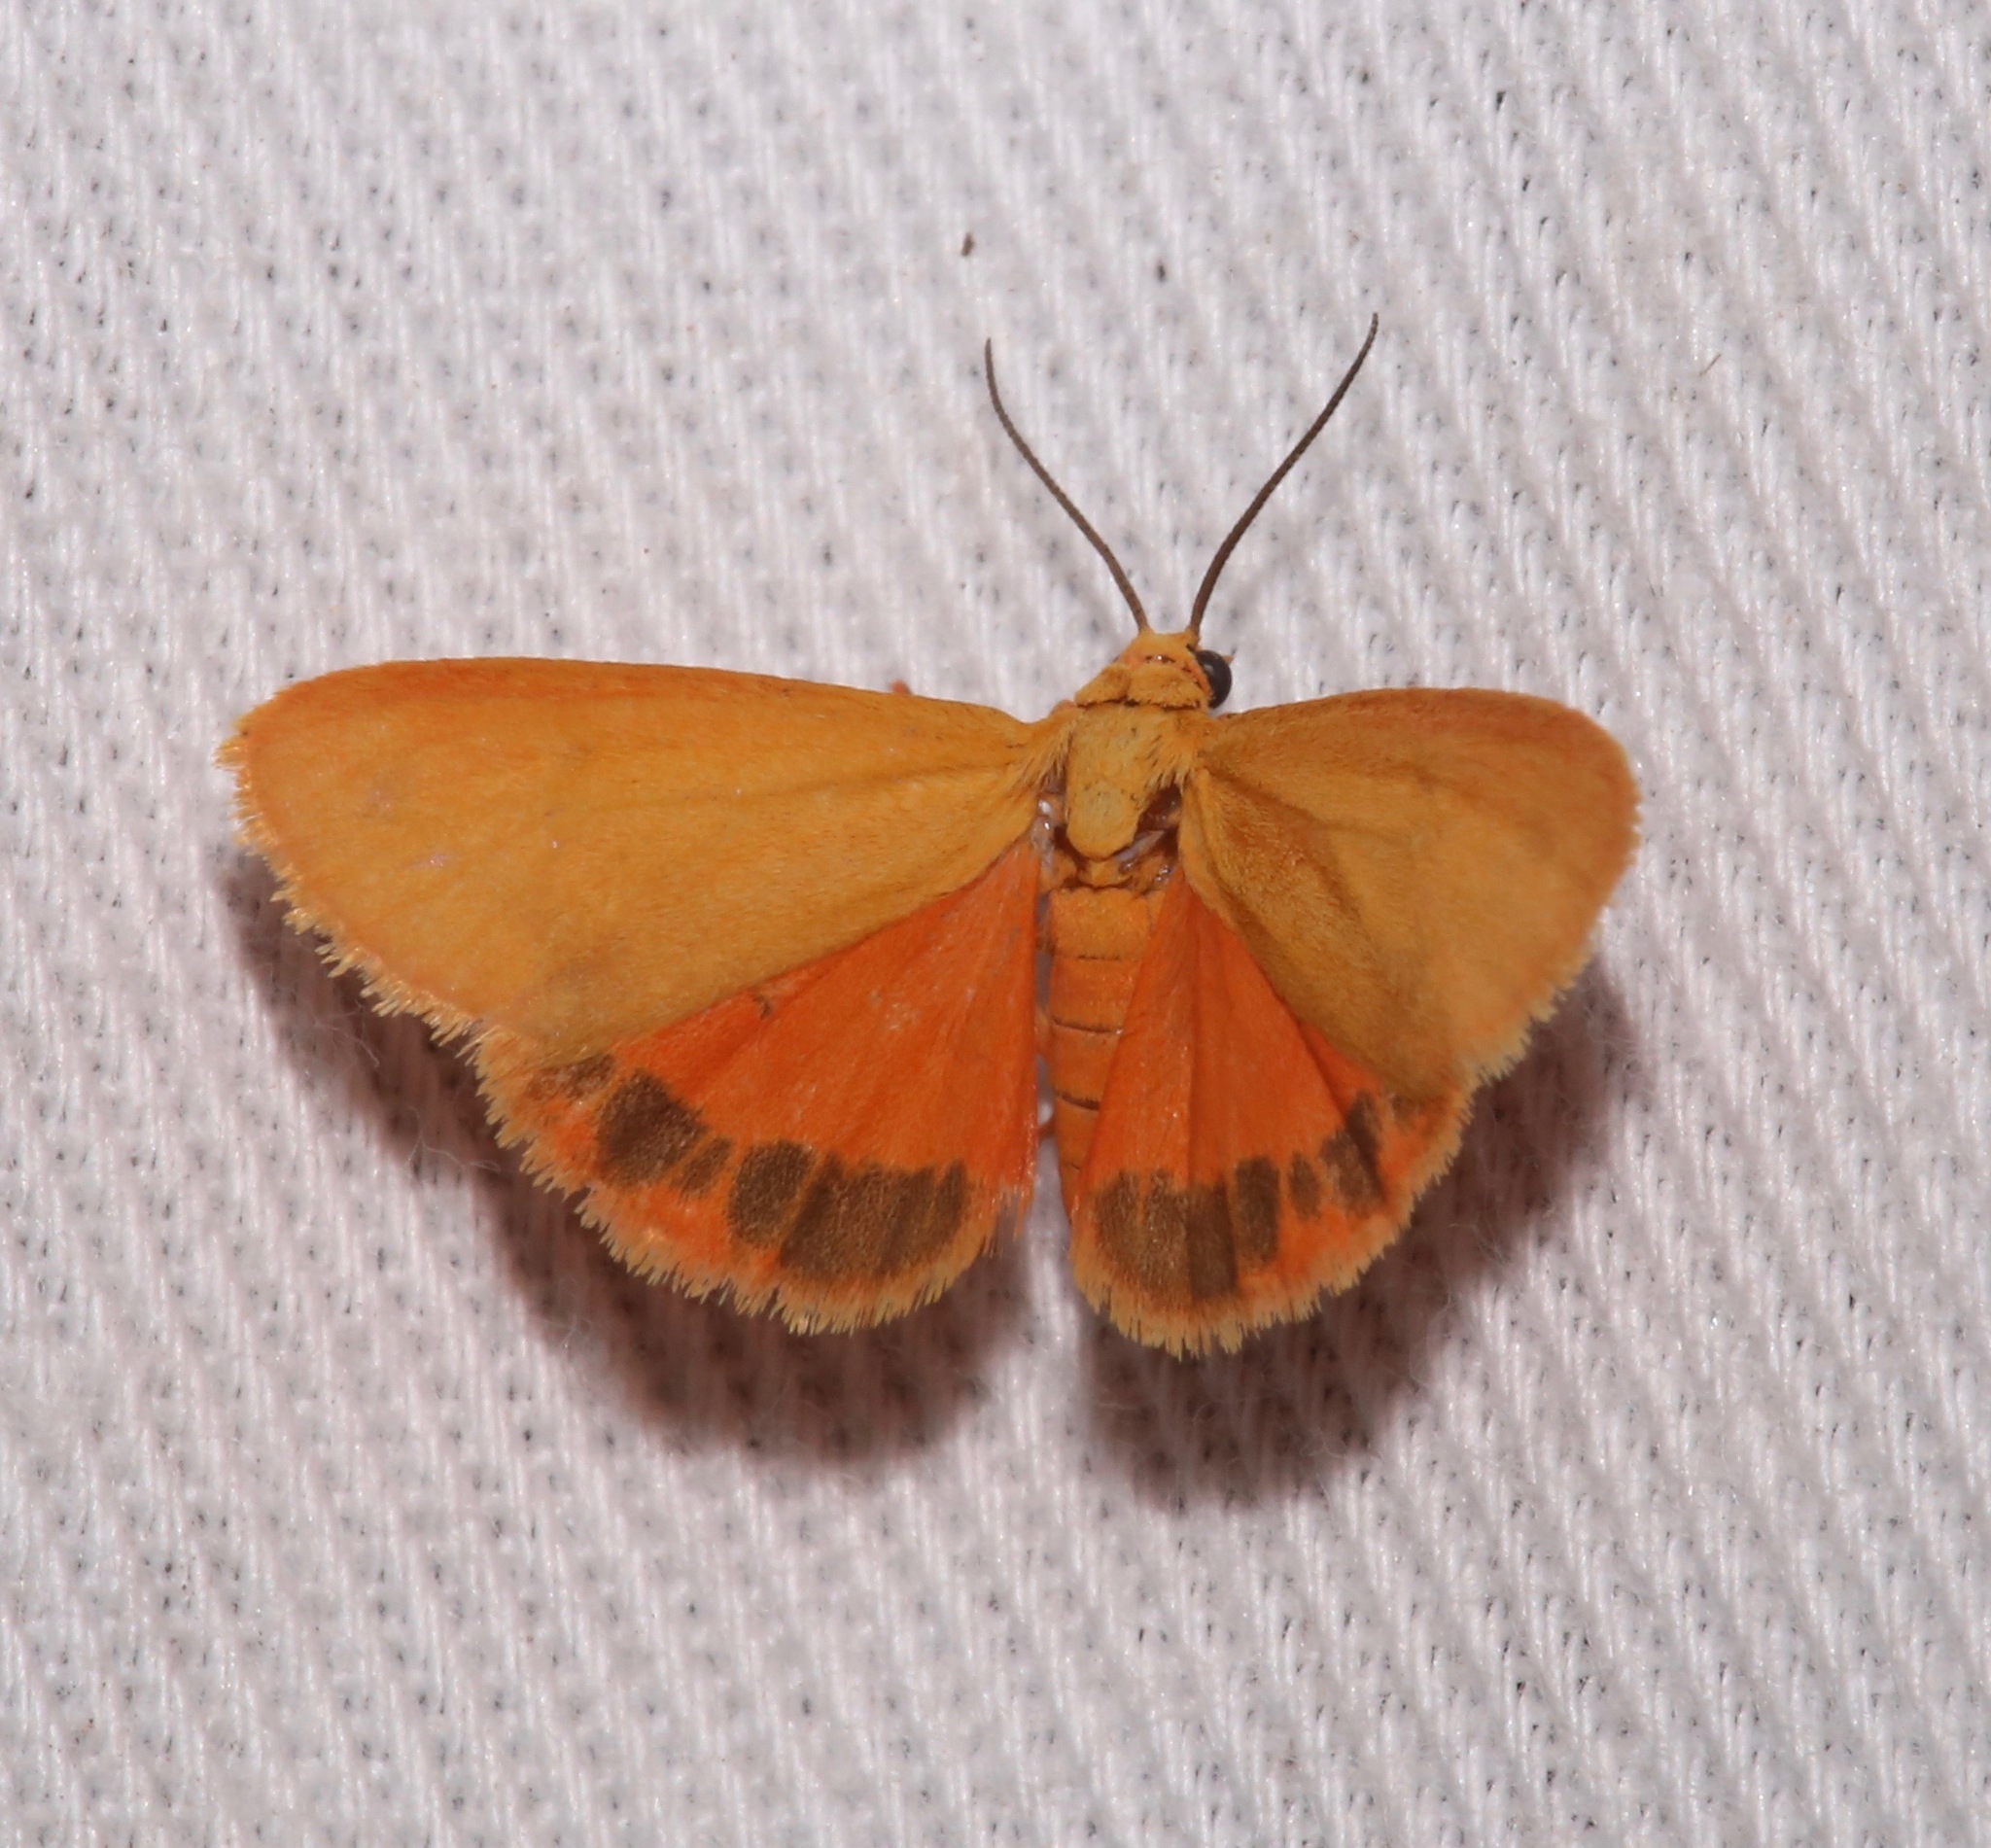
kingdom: Animalia
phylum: Arthropoda
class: Insecta
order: Lepidoptera
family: Erebidae
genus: Virbia
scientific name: Virbia aurantiaca
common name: Orange virbia moth
